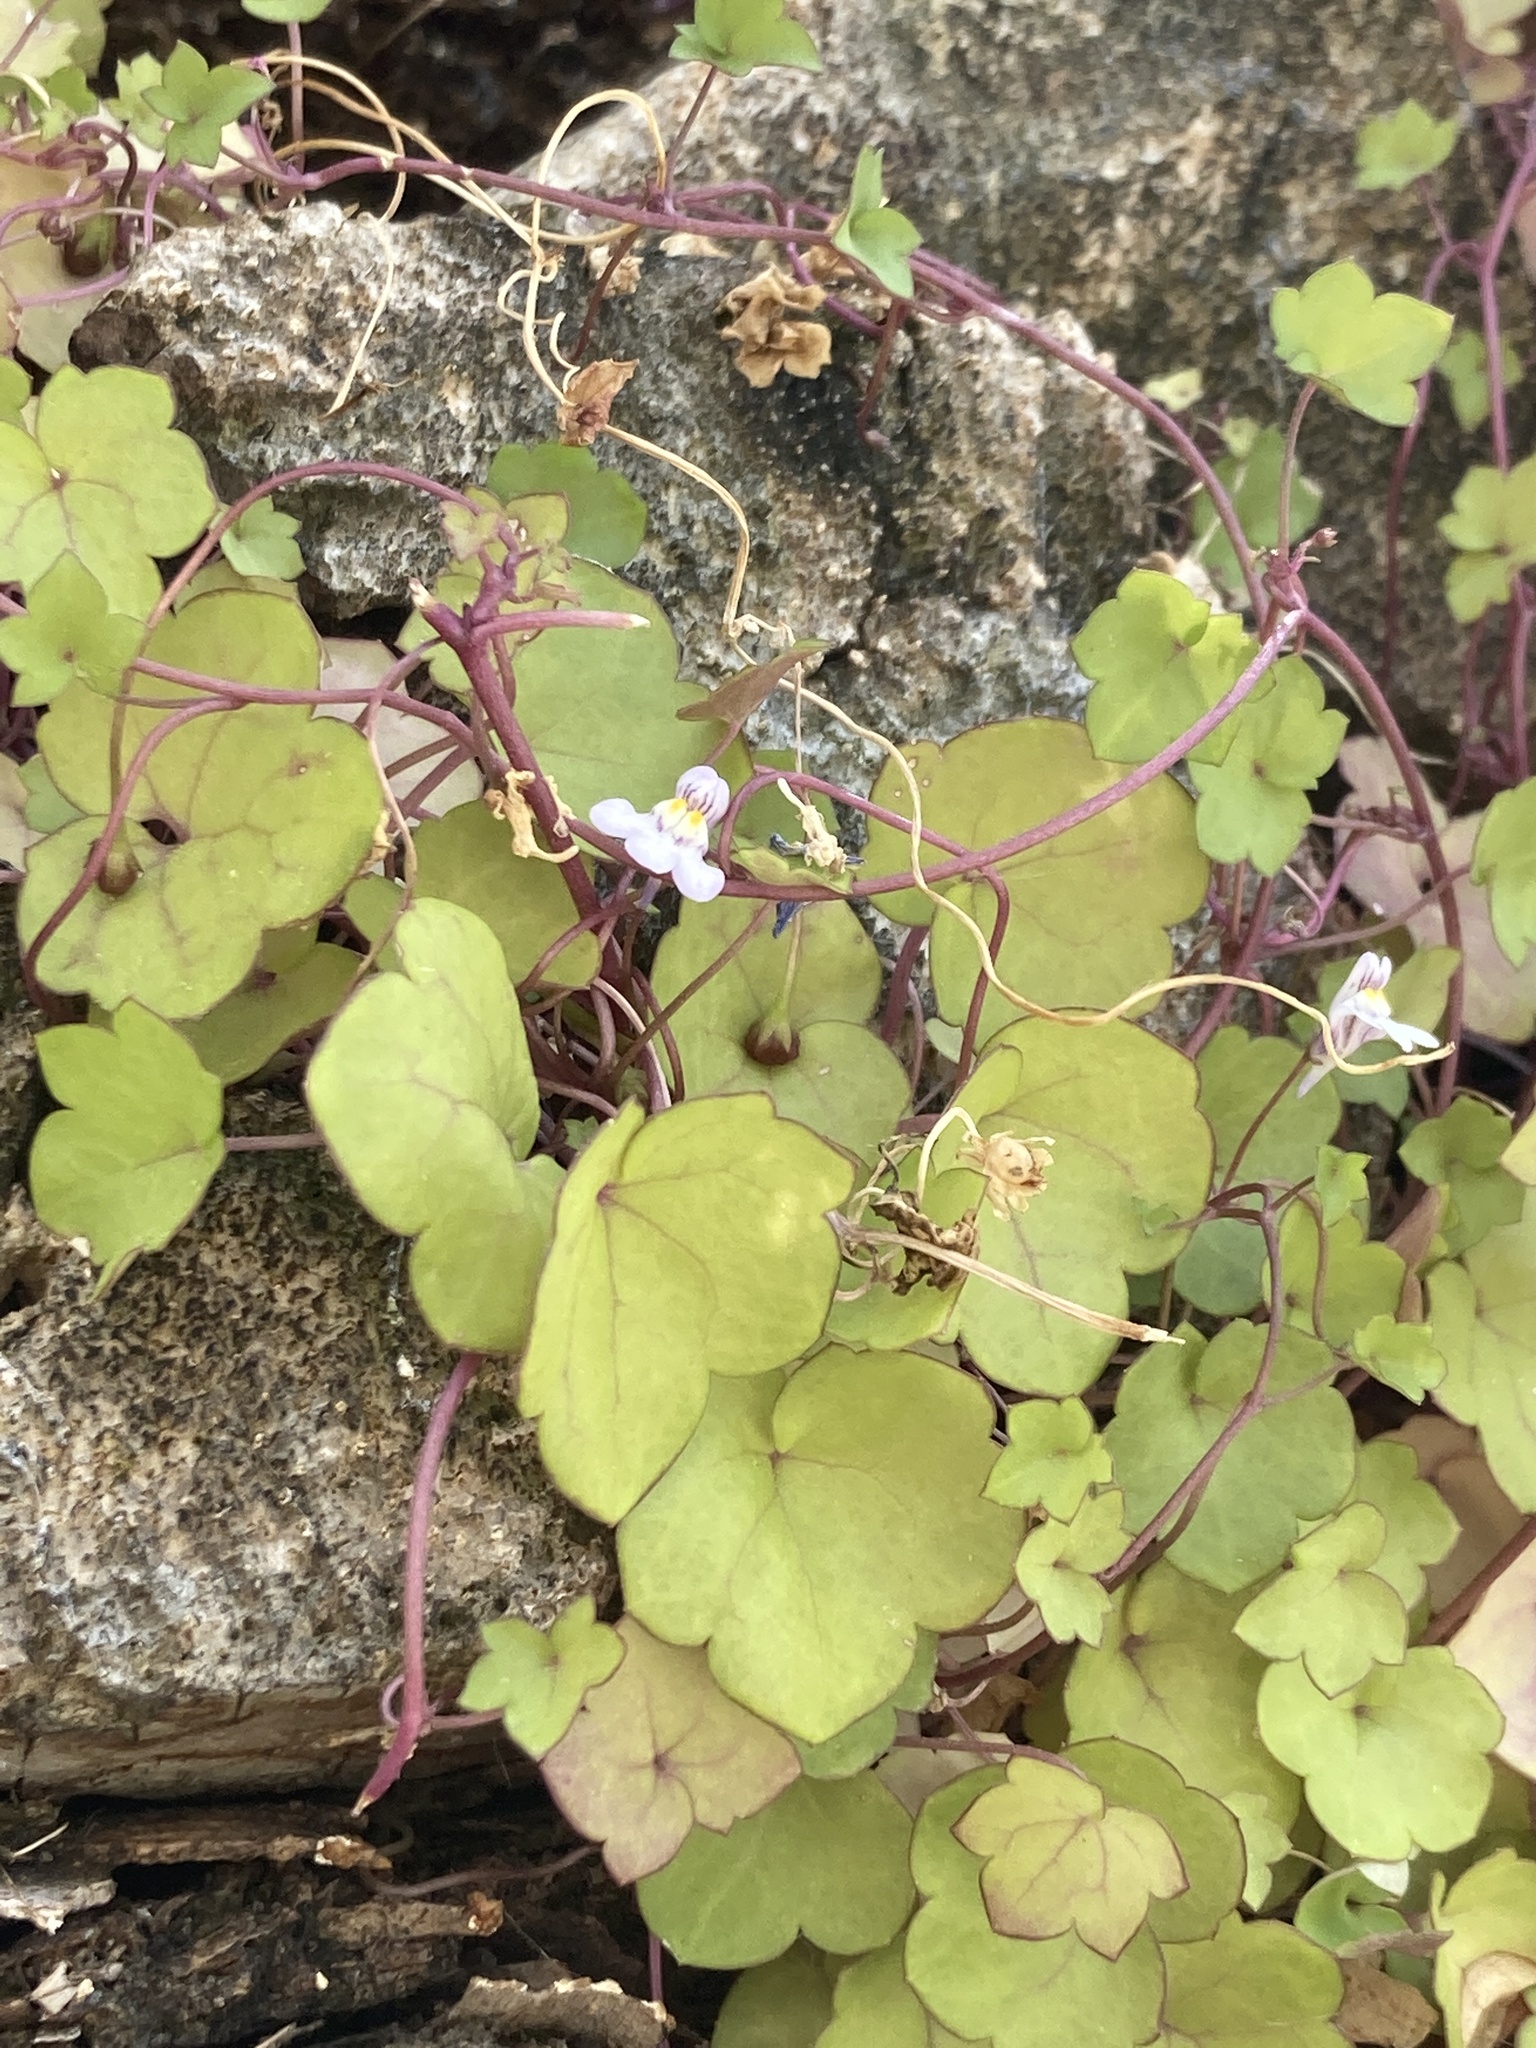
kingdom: Plantae
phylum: Tracheophyta
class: Magnoliopsida
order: Lamiales
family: Plantaginaceae
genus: Cymbalaria
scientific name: Cymbalaria muralis
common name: Ivy-leaved toadflax
